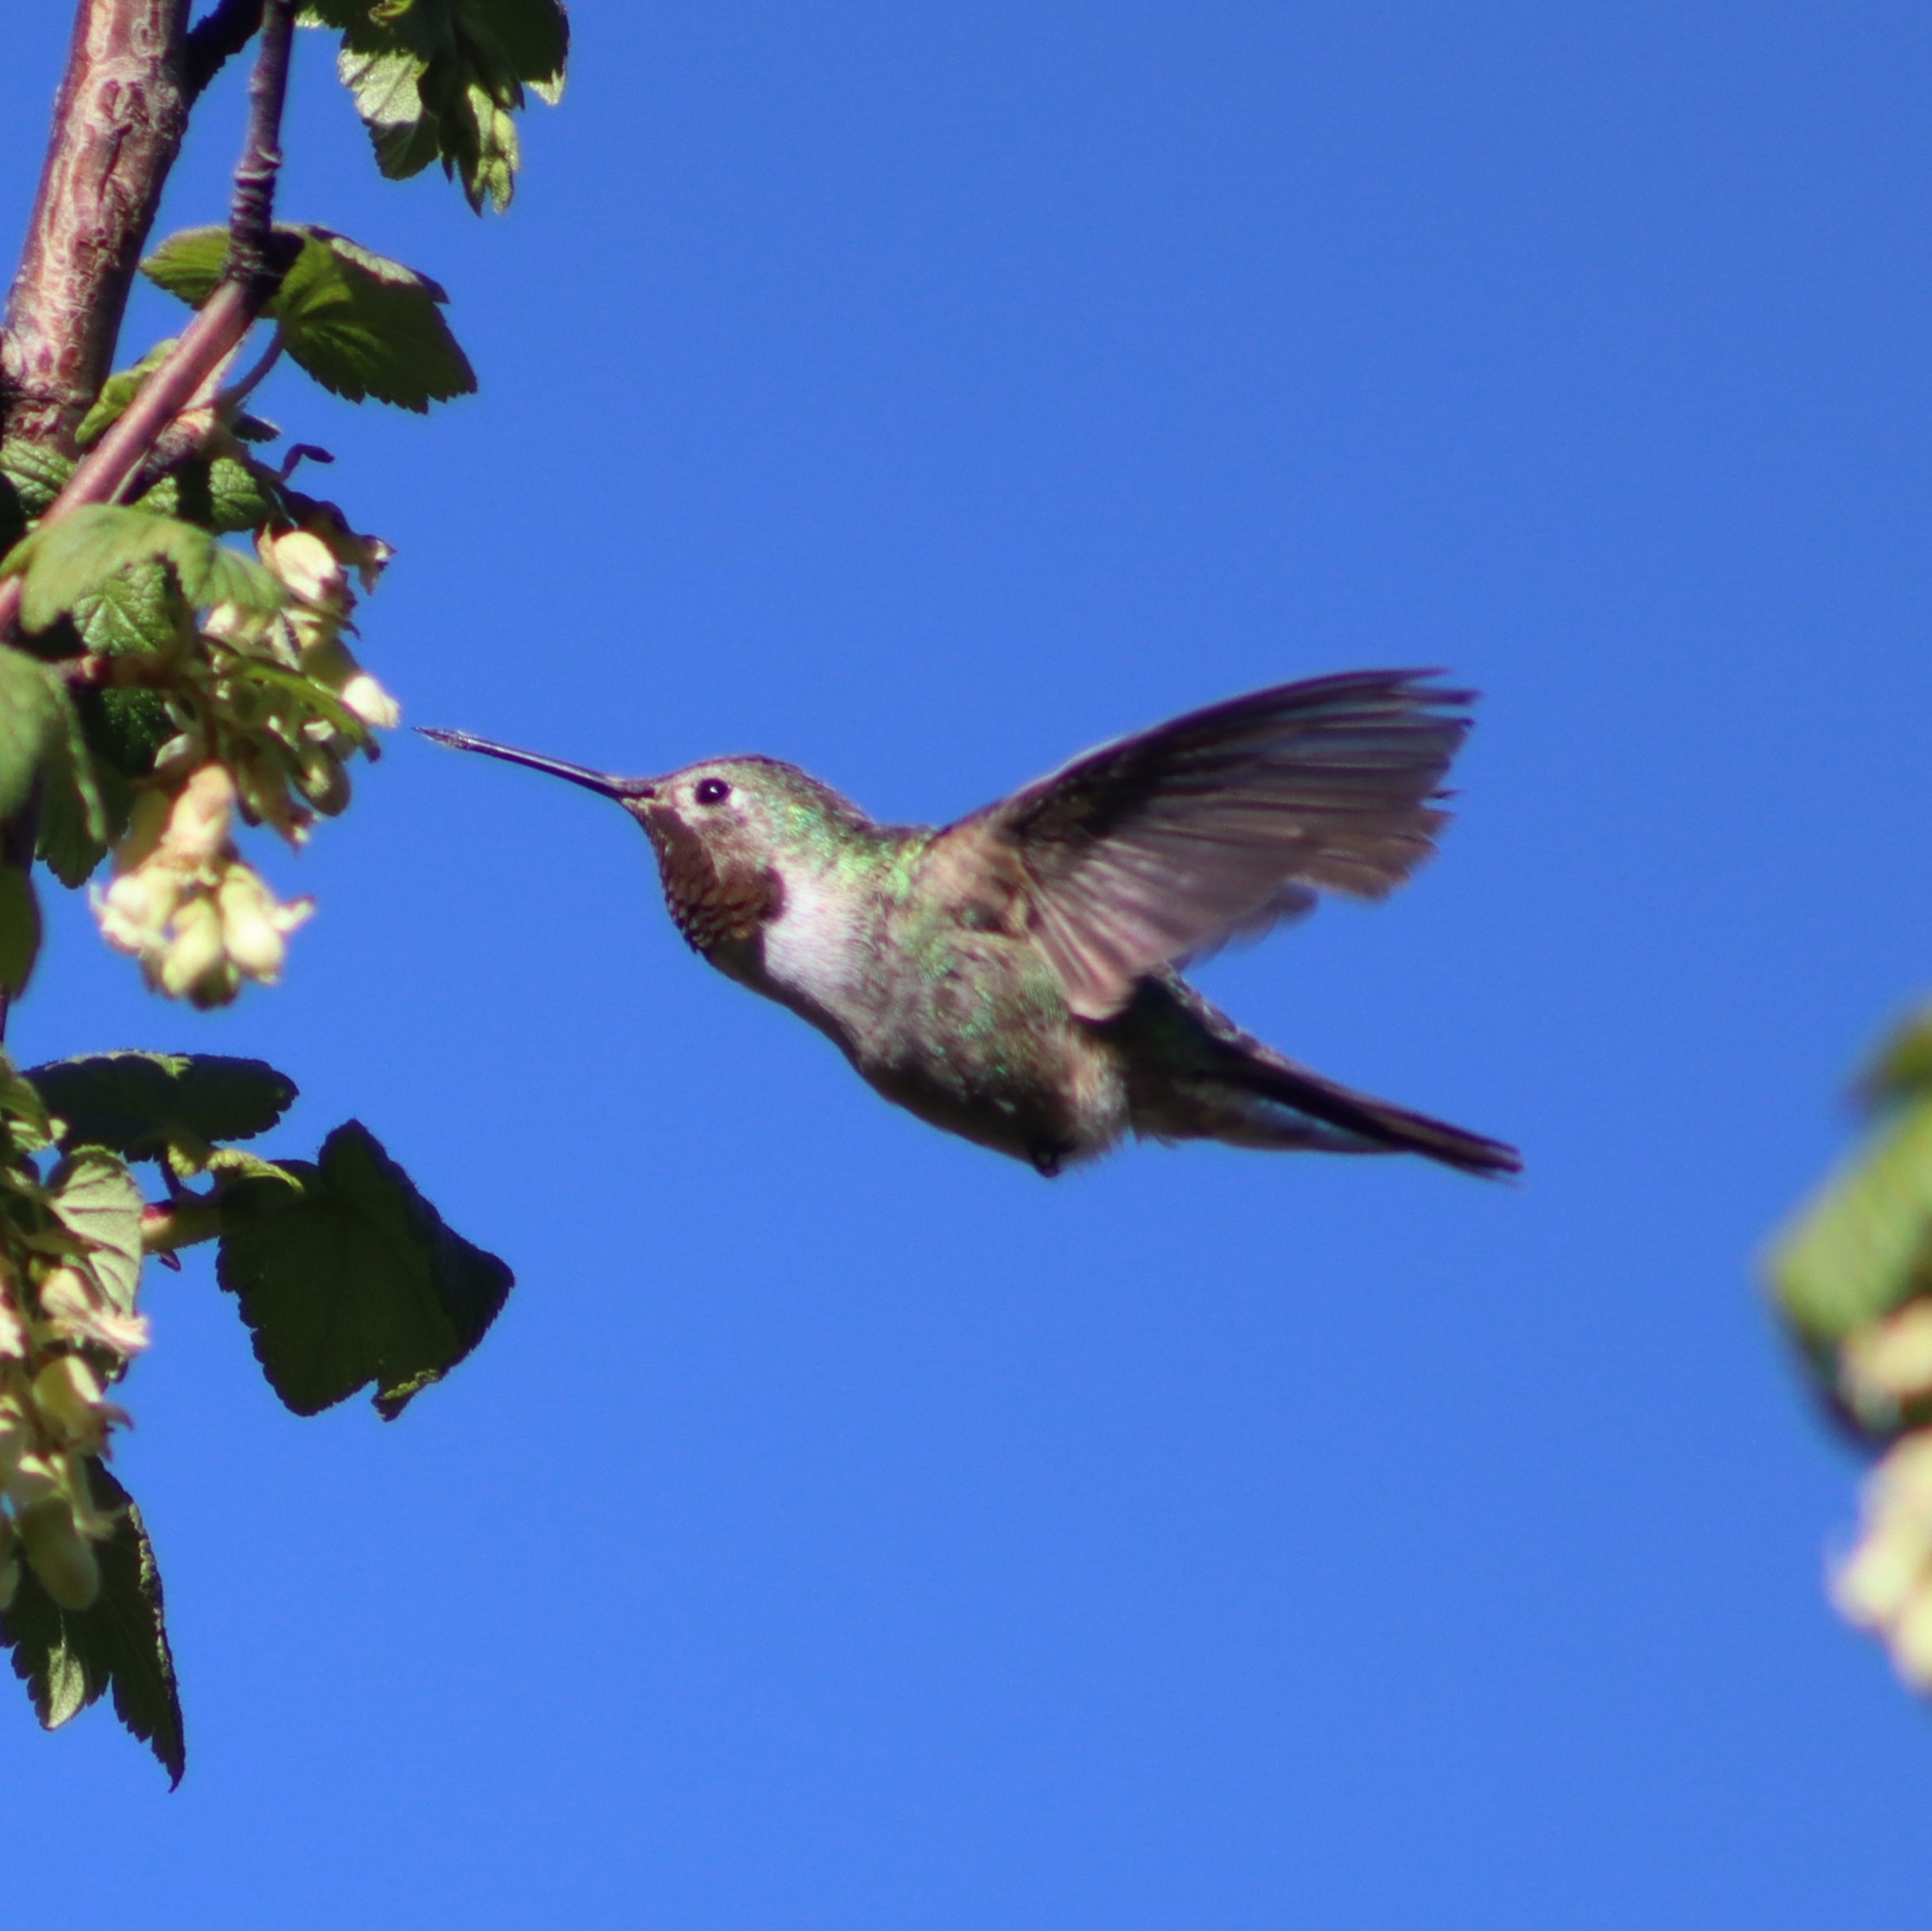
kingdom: Animalia
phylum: Chordata
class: Aves
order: Apodiformes
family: Trochilidae
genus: Selasphorus
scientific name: Selasphorus platycercus
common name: Broad-tailed hummingbird
